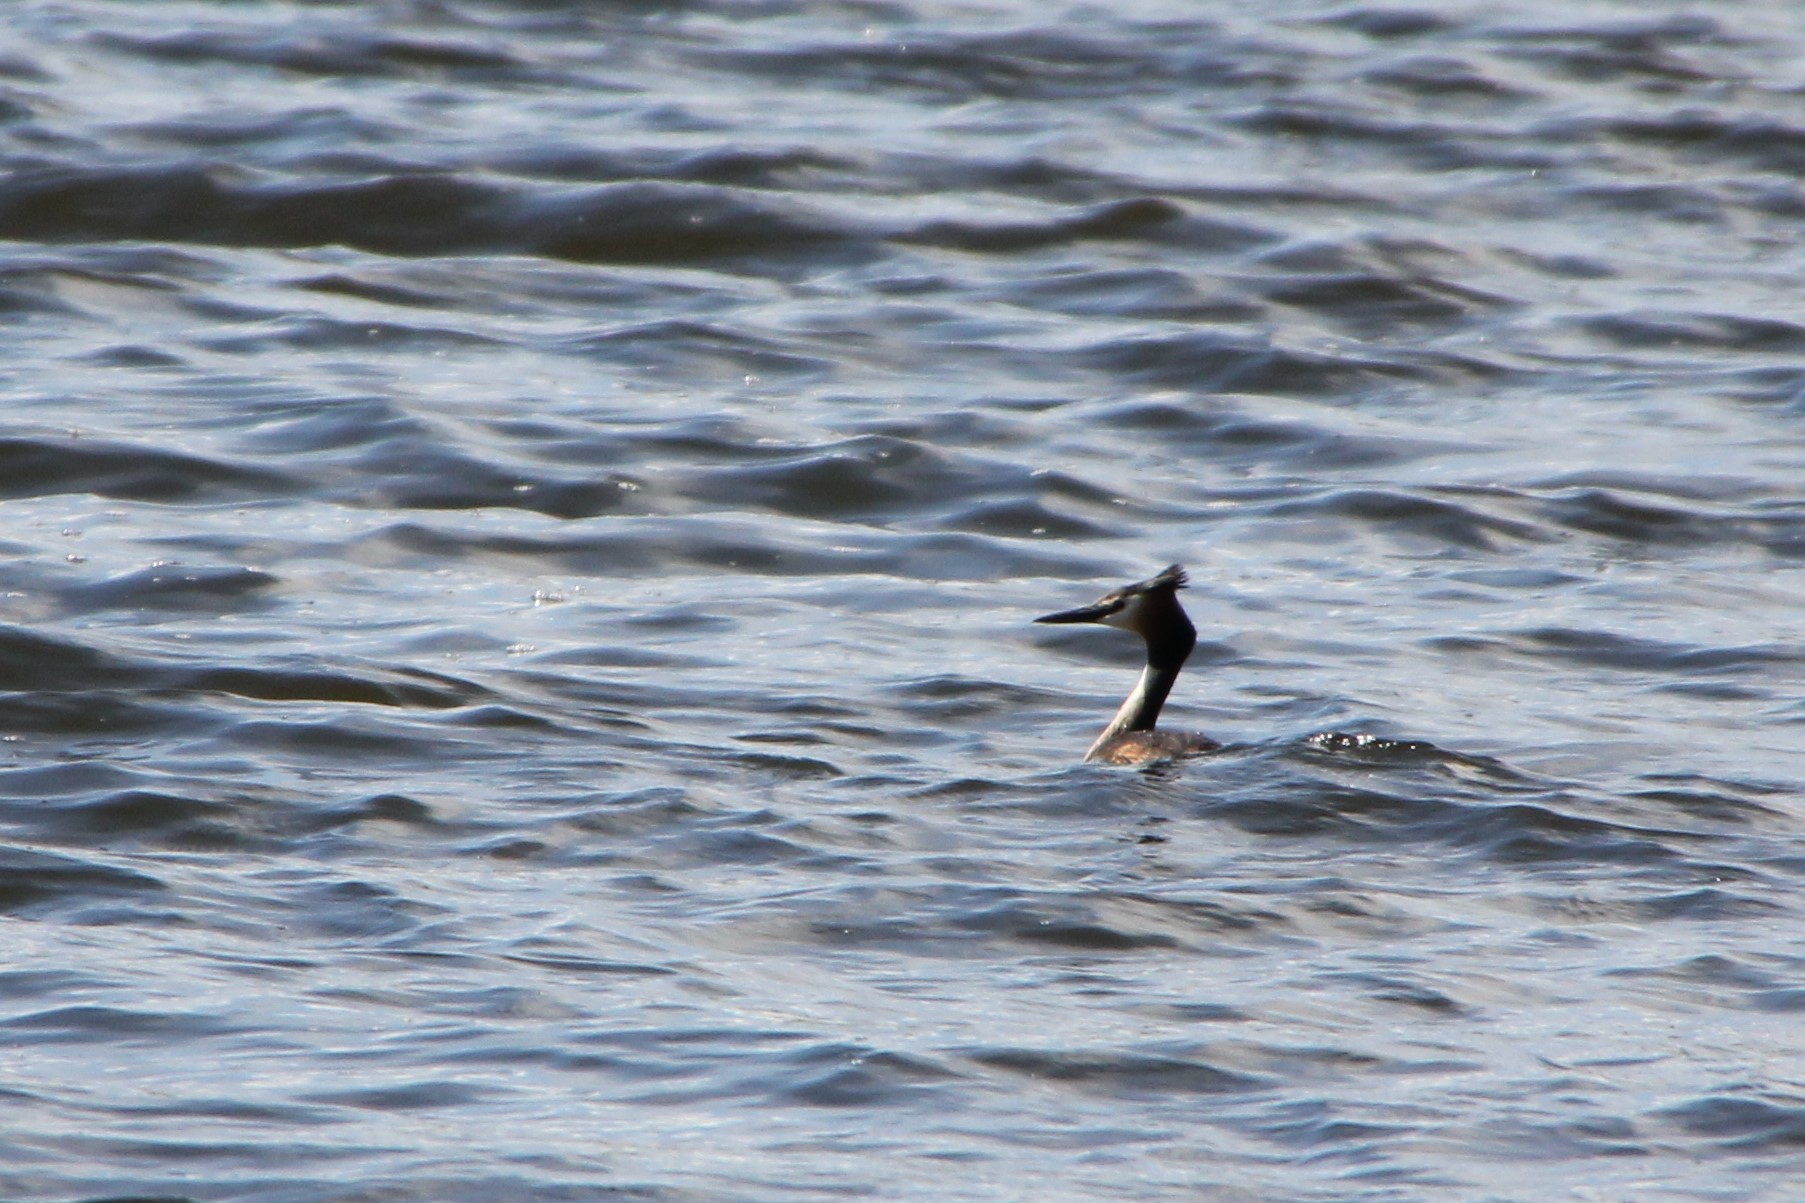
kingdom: Animalia
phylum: Chordata
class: Aves
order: Podicipediformes
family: Podicipedidae
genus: Podiceps
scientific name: Podiceps cristatus
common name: Great crested grebe
